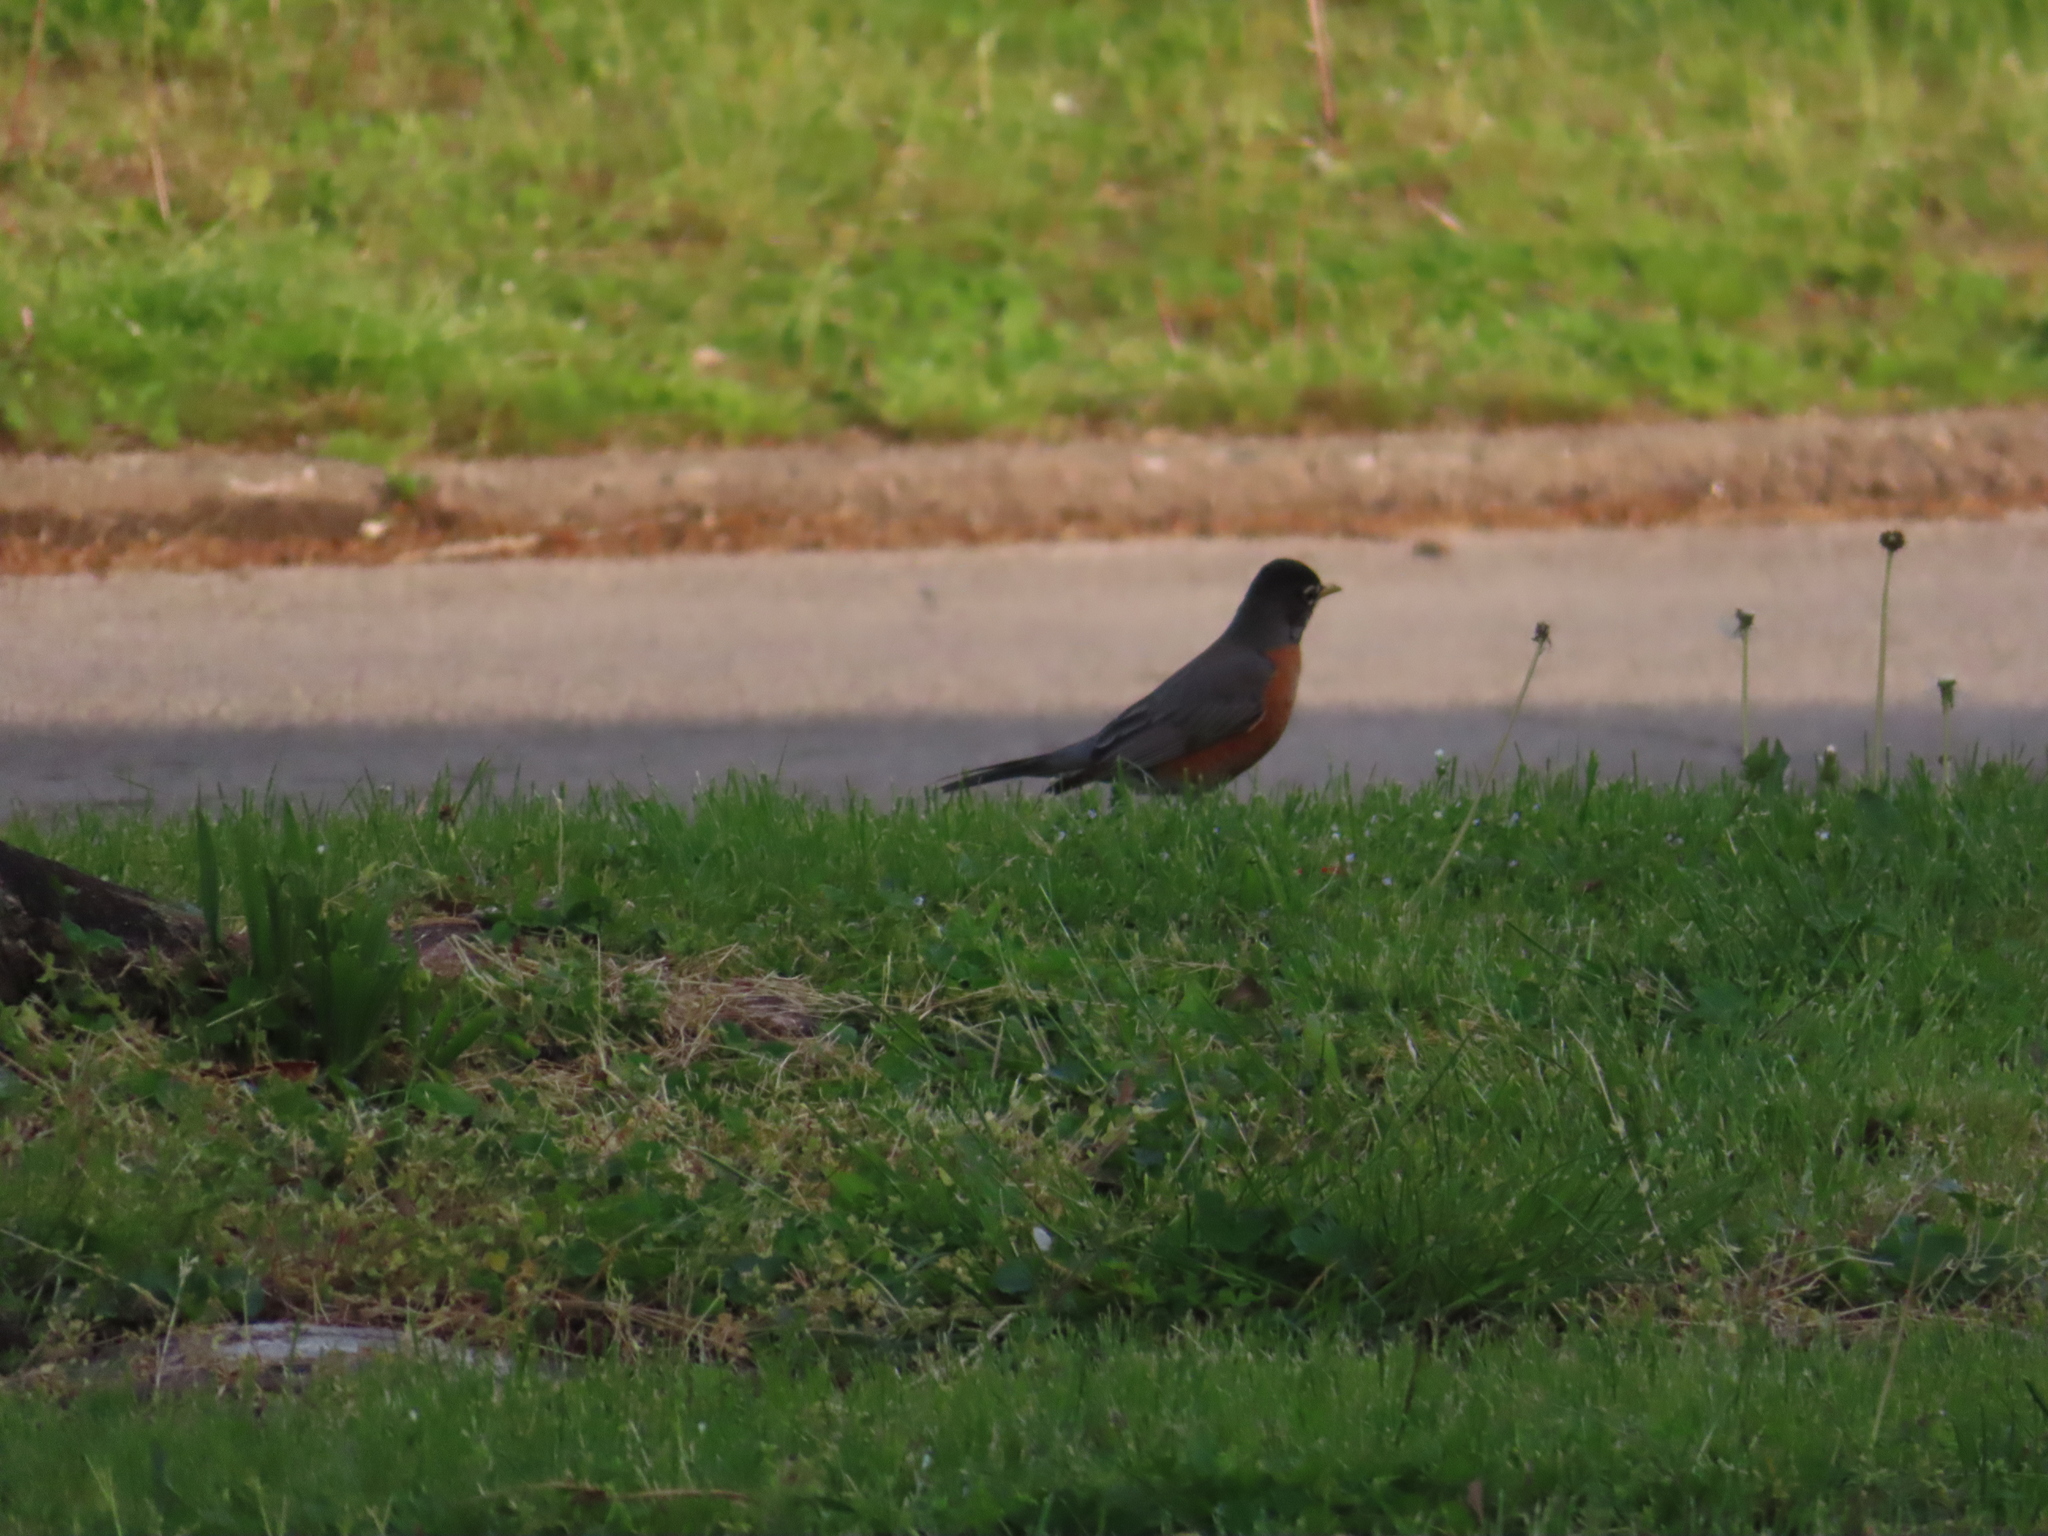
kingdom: Animalia
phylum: Chordata
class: Aves
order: Passeriformes
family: Turdidae
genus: Turdus
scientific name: Turdus migratorius
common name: American robin
